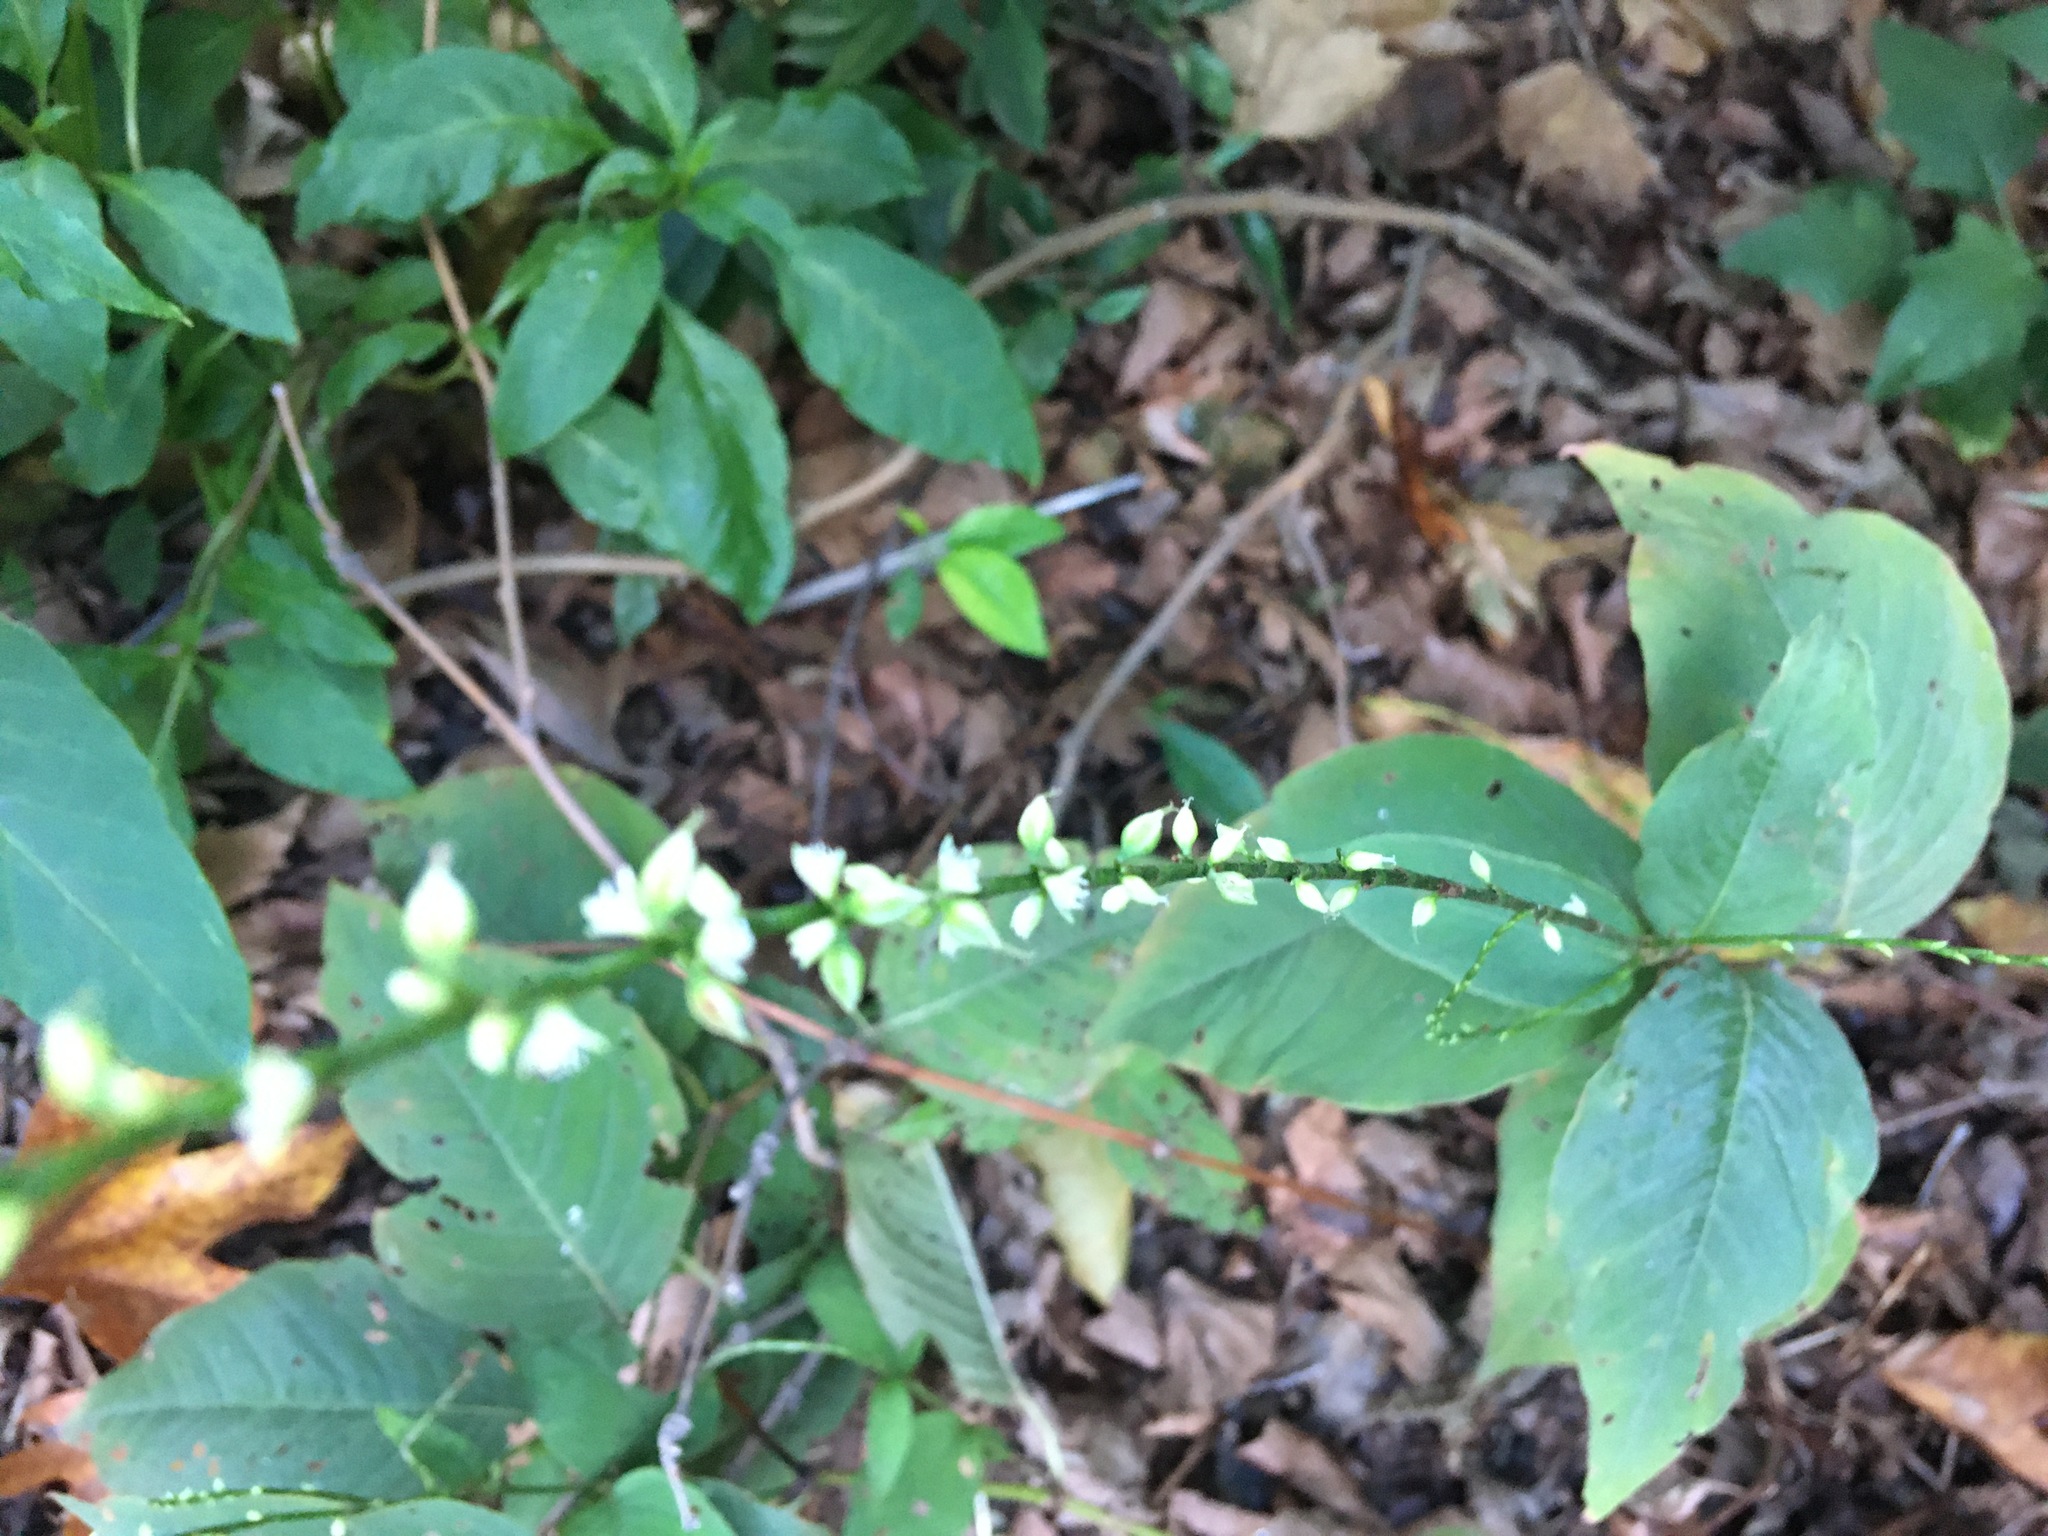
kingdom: Plantae
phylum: Tracheophyta
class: Magnoliopsida
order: Caryophyllales
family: Polygonaceae
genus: Persicaria
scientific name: Persicaria virginiana
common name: Jumpseed
